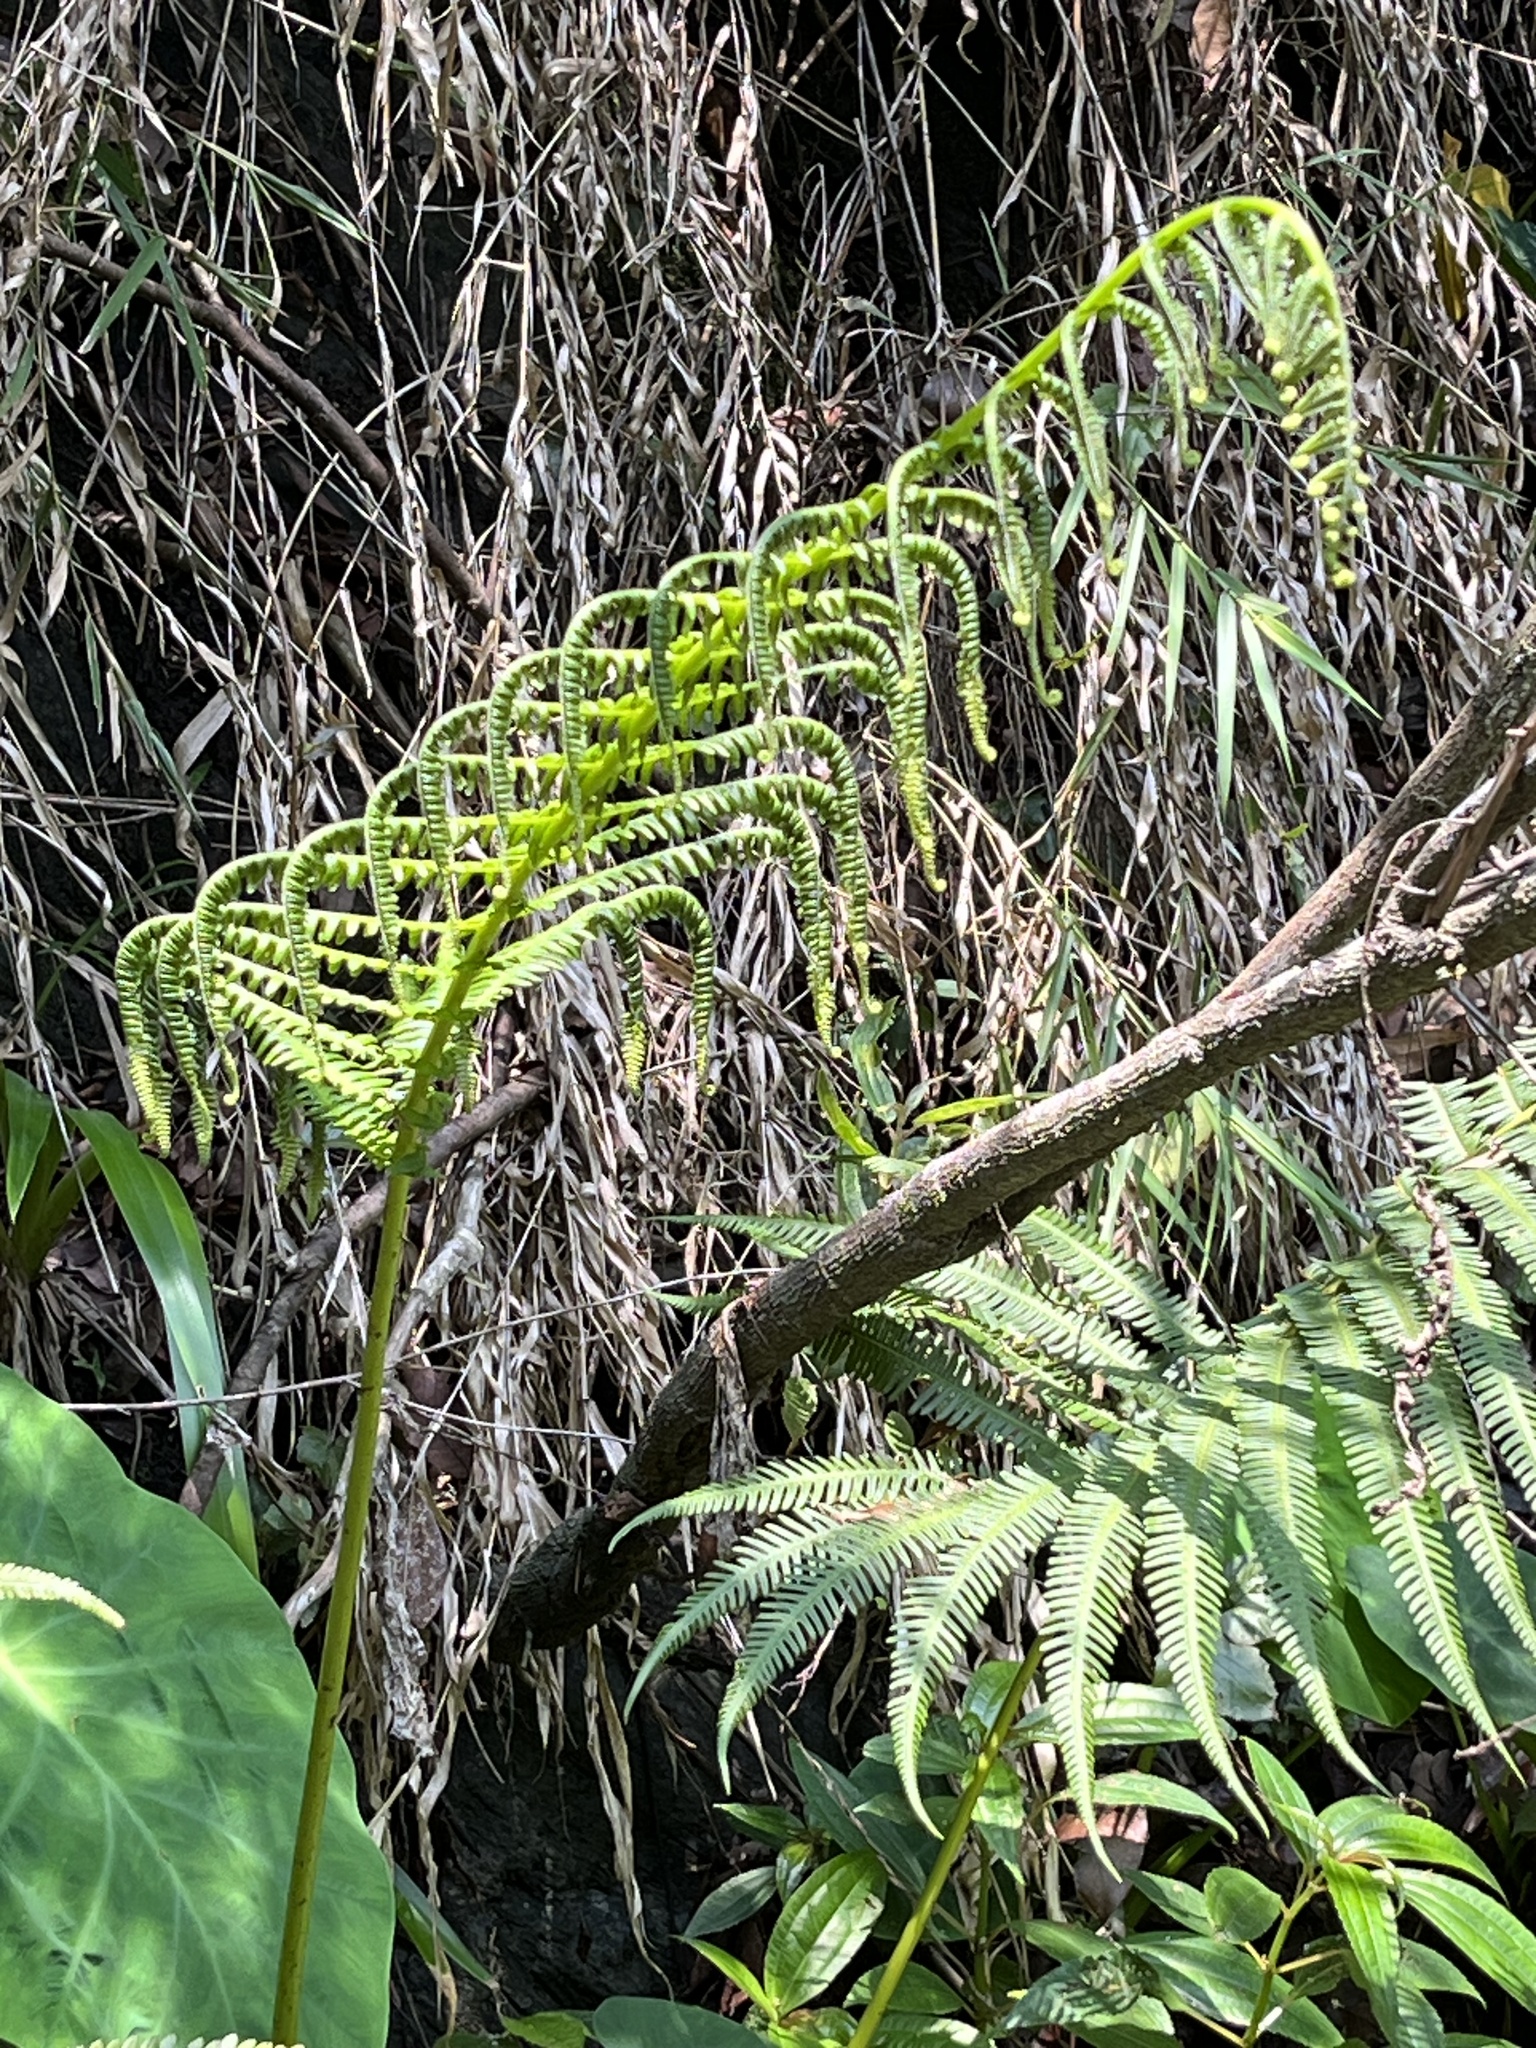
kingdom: Plantae
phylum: Tracheophyta
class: Polypodiopsida
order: Polypodiales
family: Thelypteridaceae
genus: Glaphyropteridopsis
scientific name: Glaphyropteridopsis erubescens
